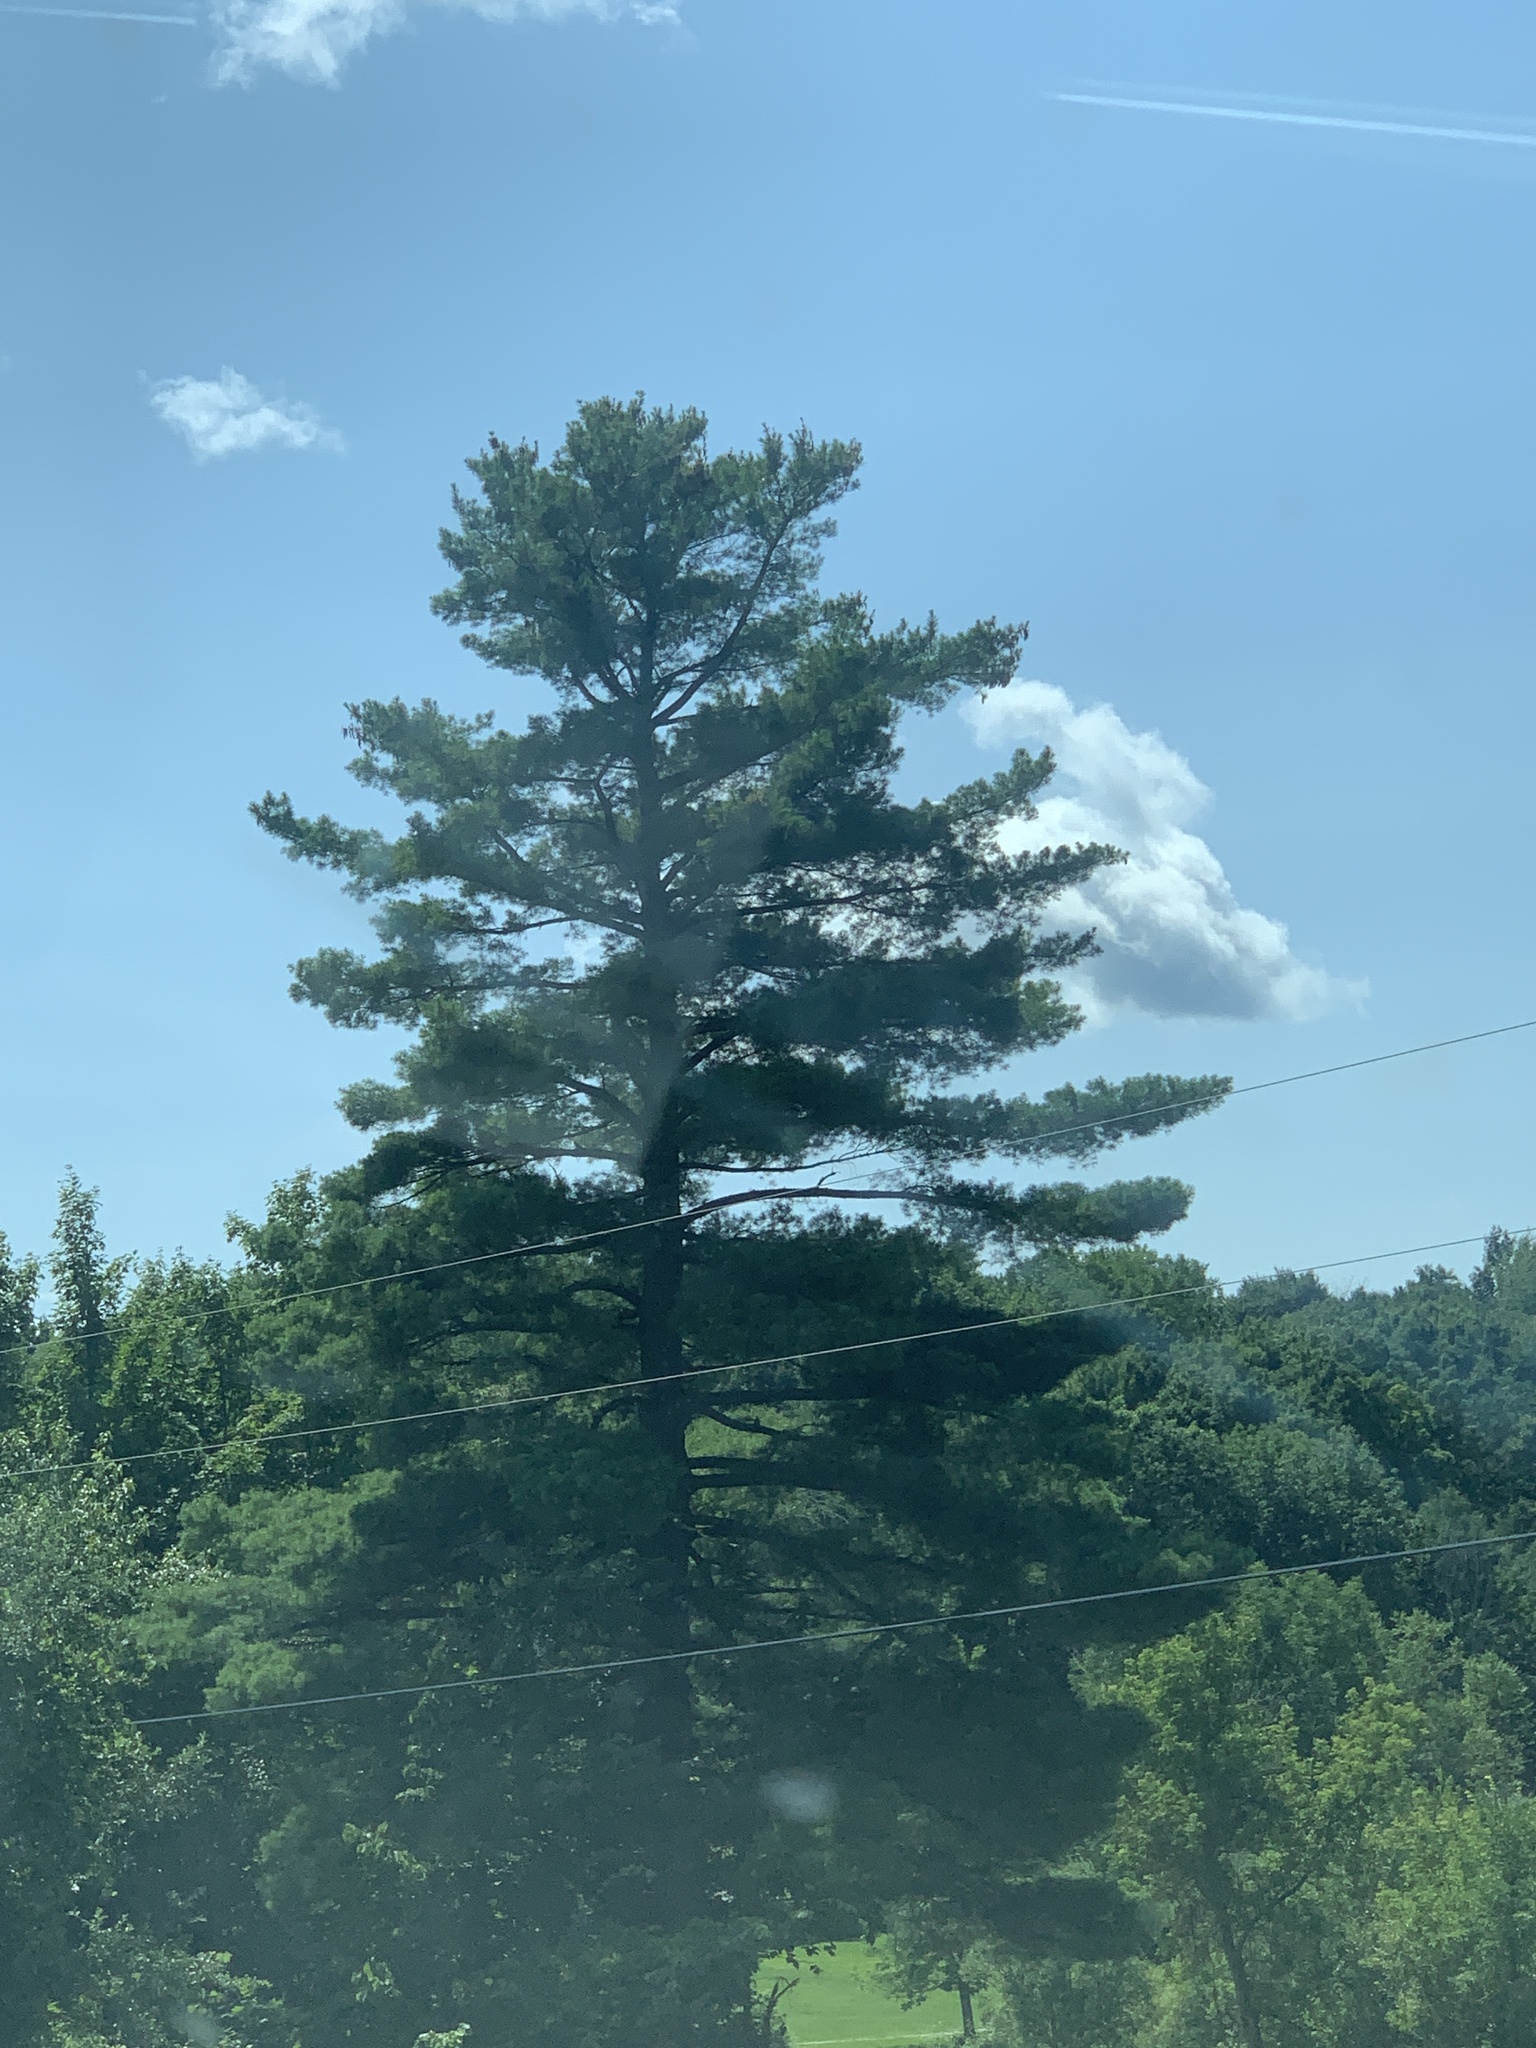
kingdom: Plantae
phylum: Tracheophyta
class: Pinopsida
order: Pinales
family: Pinaceae
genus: Pinus
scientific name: Pinus strobus
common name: Weymouth pine
